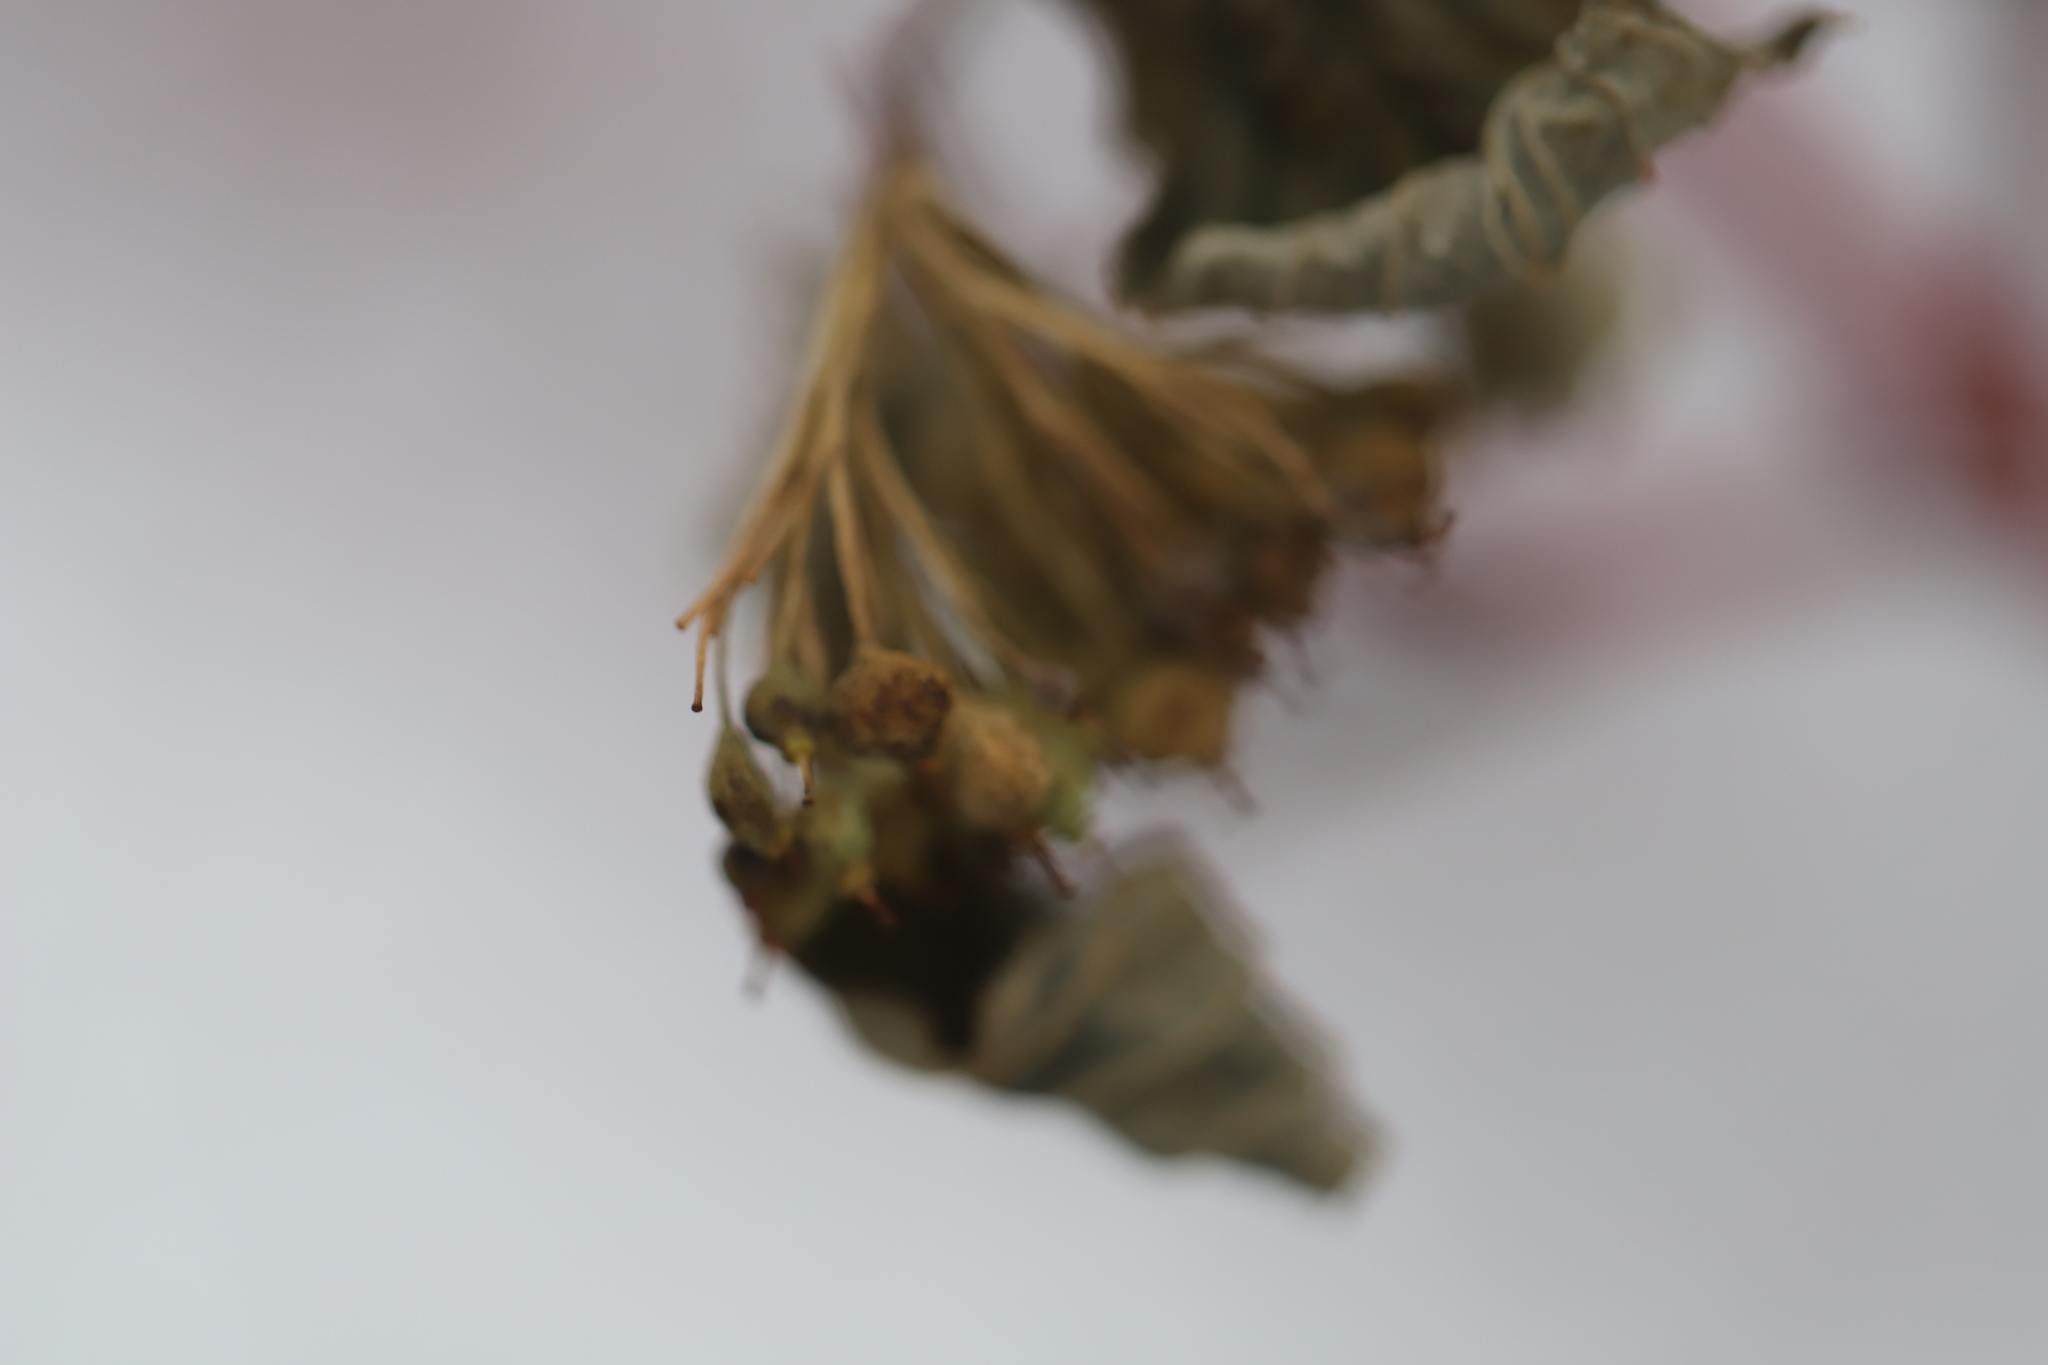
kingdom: Plantae
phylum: Tracheophyta
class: Magnoliopsida
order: Cornales
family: Cornaceae
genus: Cornus
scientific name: Cornus sericea
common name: Red-osier dogwood
